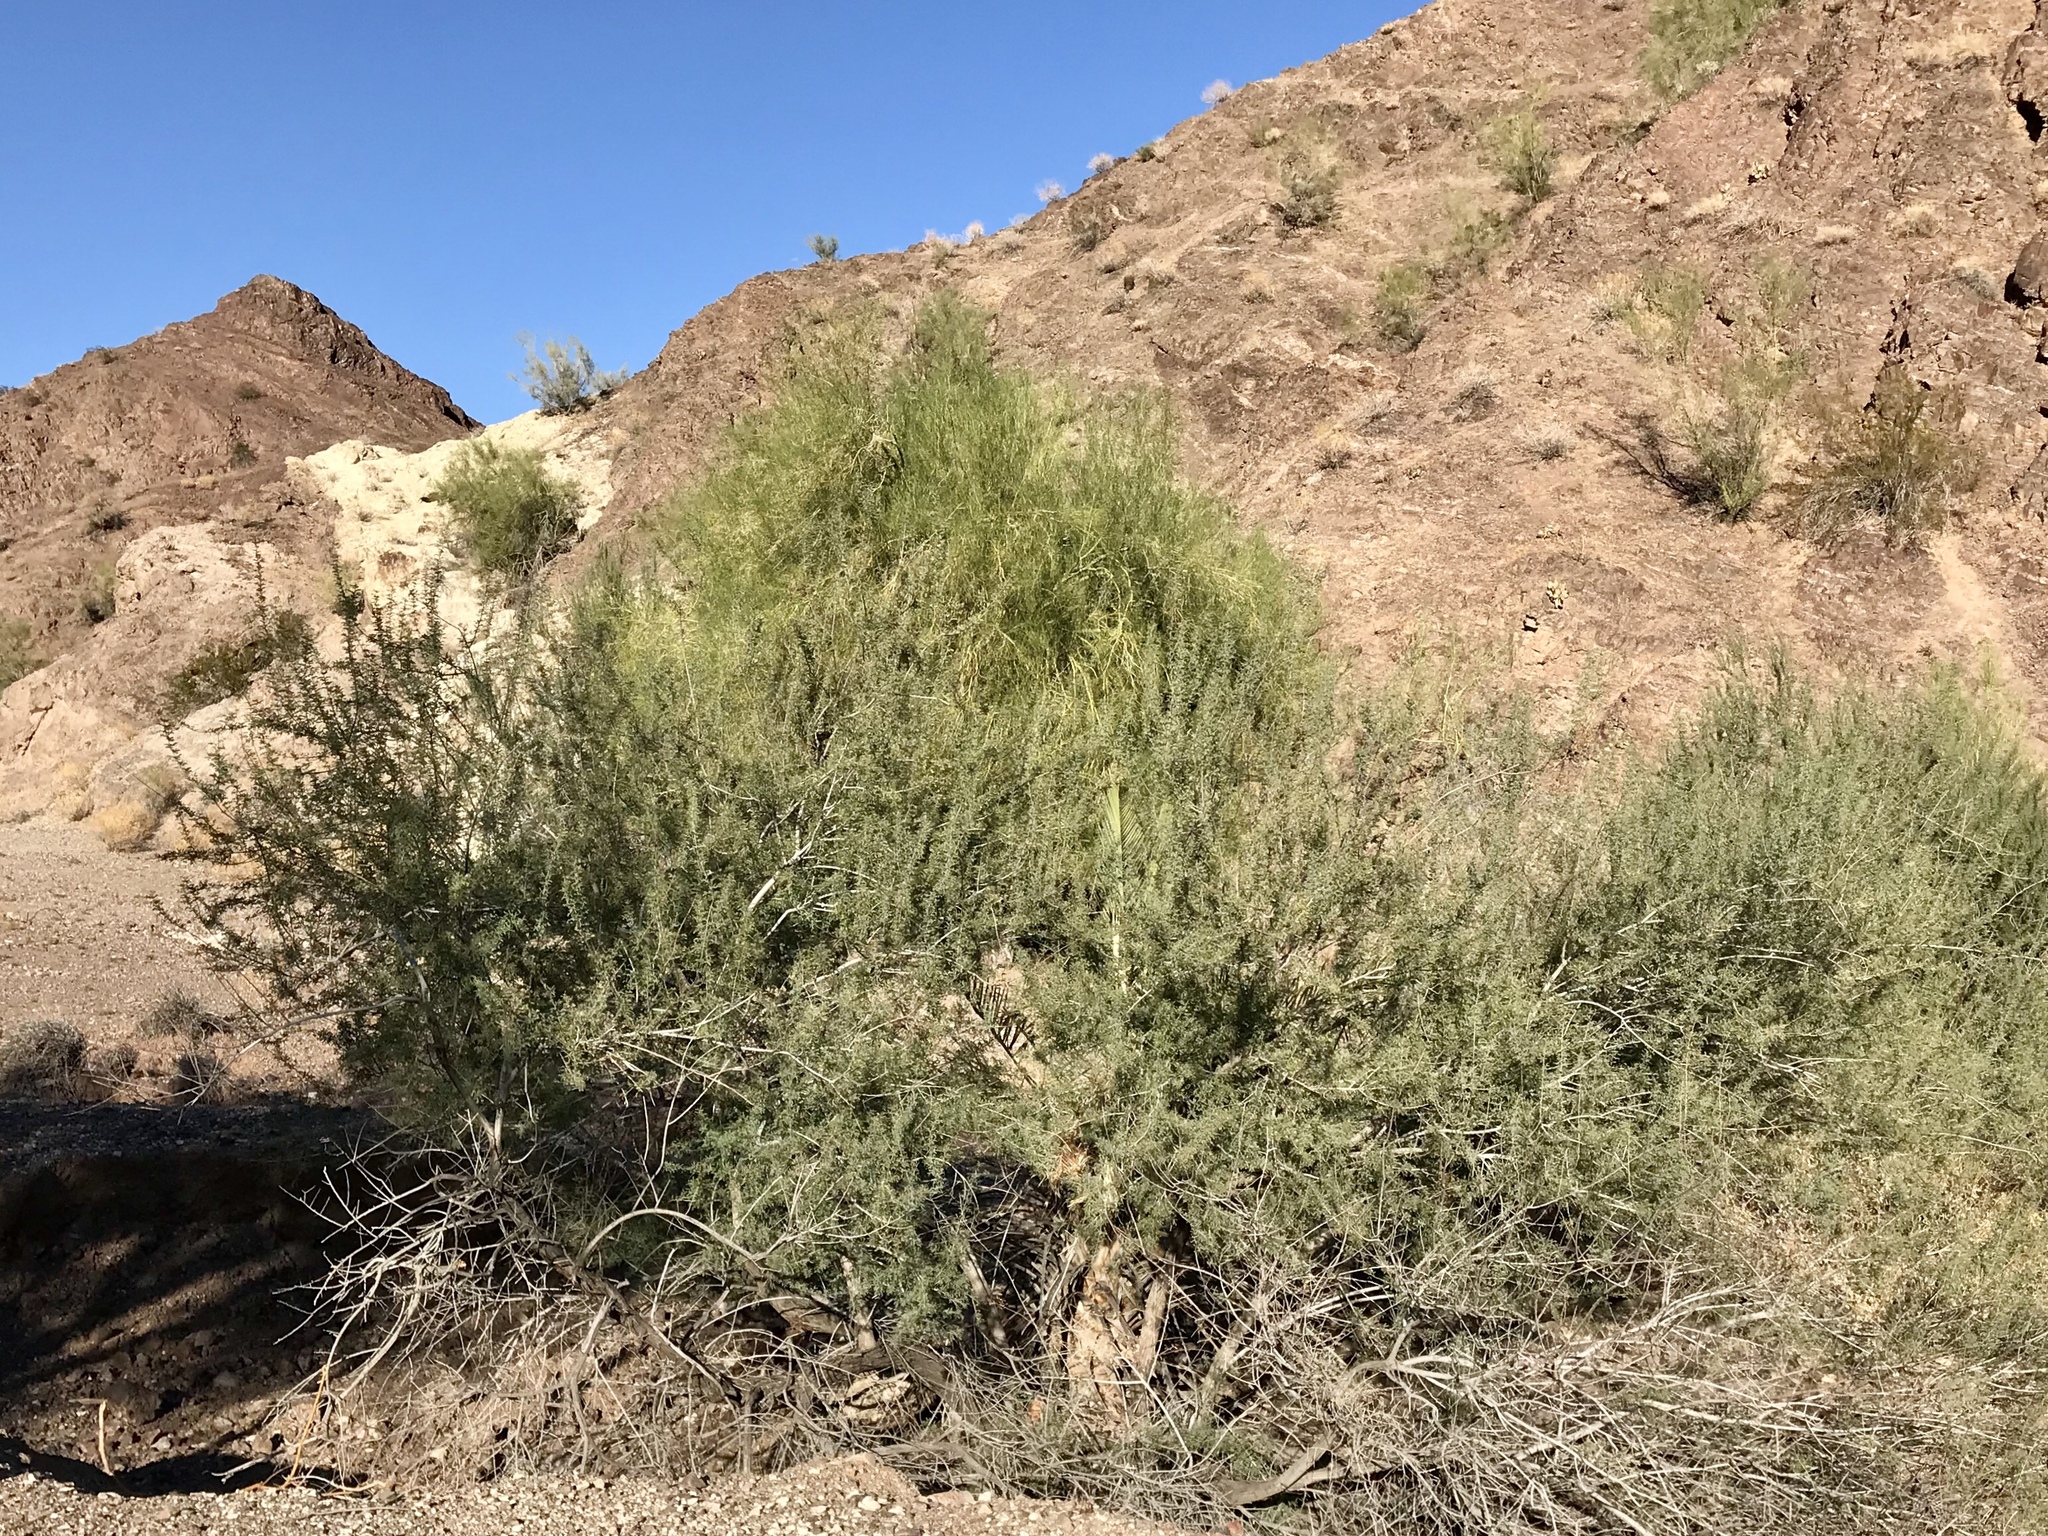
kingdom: Plantae
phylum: Tracheophyta
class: Magnoliopsida
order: Fabales
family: Fabaceae
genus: Parkinsonia
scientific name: Parkinsonia florida
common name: Blue paloverde
